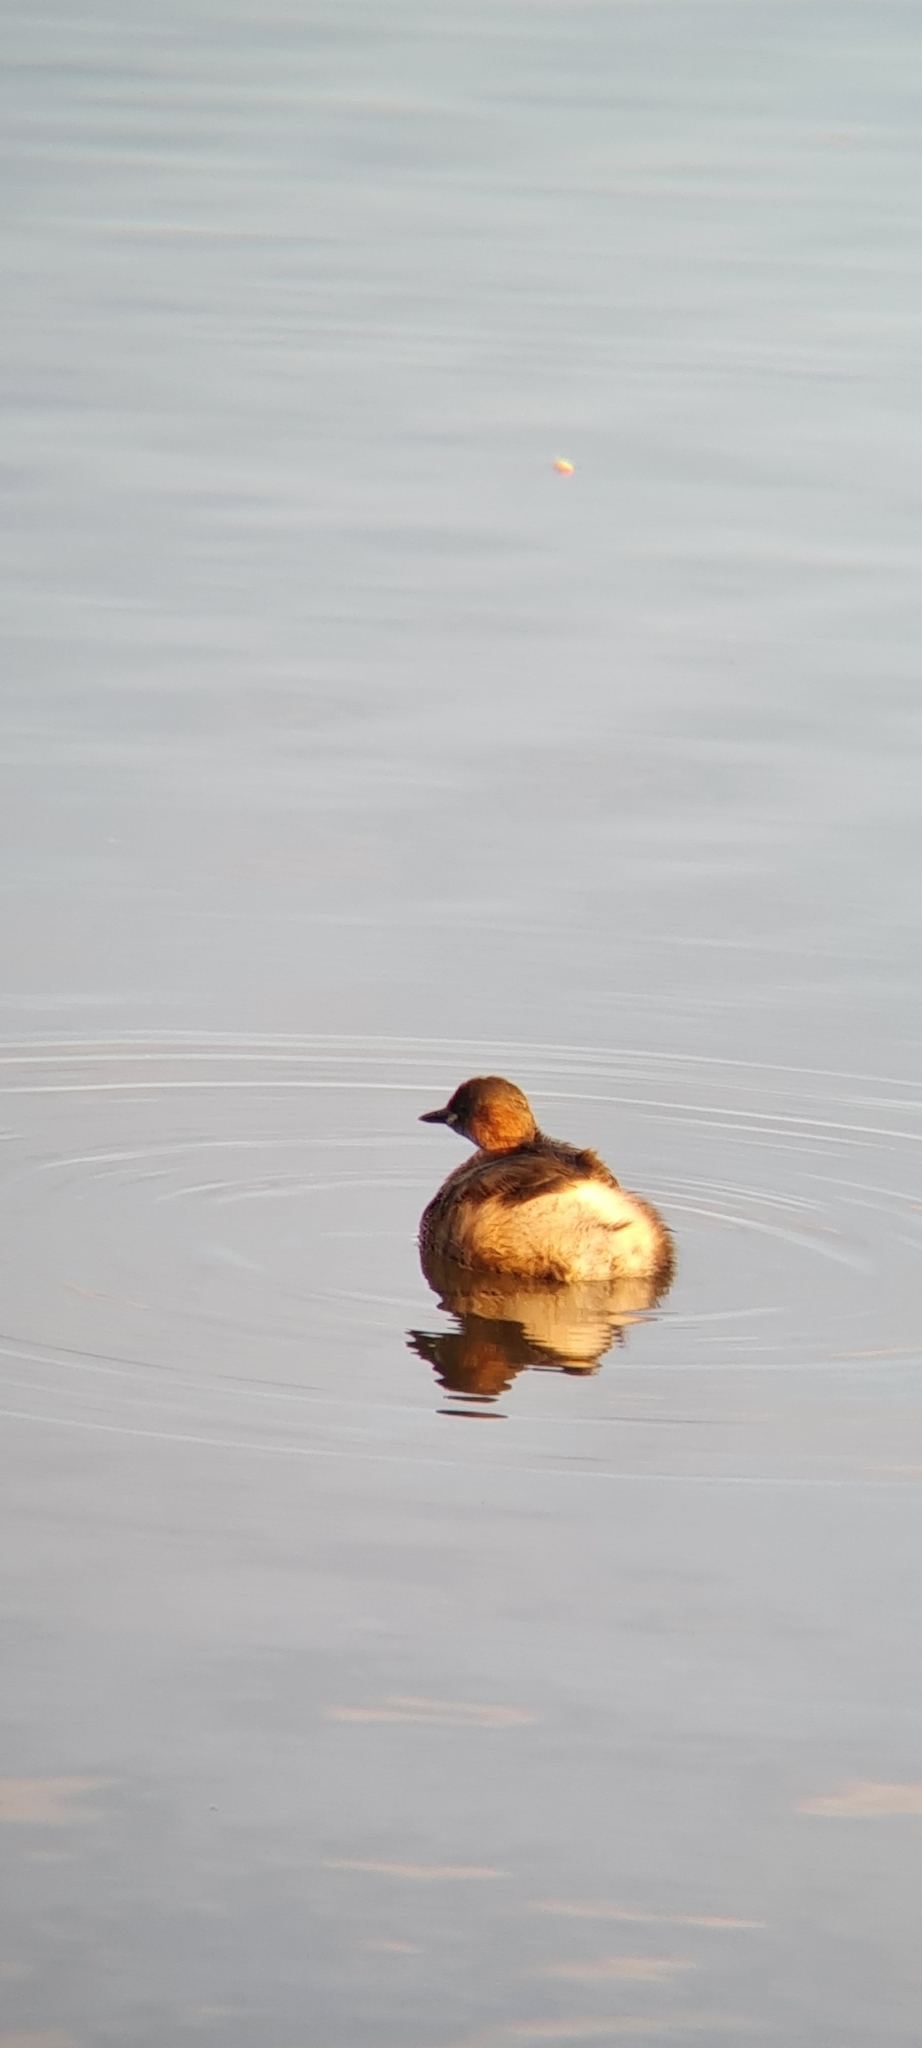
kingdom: Animalia
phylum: Chordata
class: Aves
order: Podicipediformes
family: Podicipedidae
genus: Tachybaptus
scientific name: Tachybaptus ruficollis
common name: Little grebe
